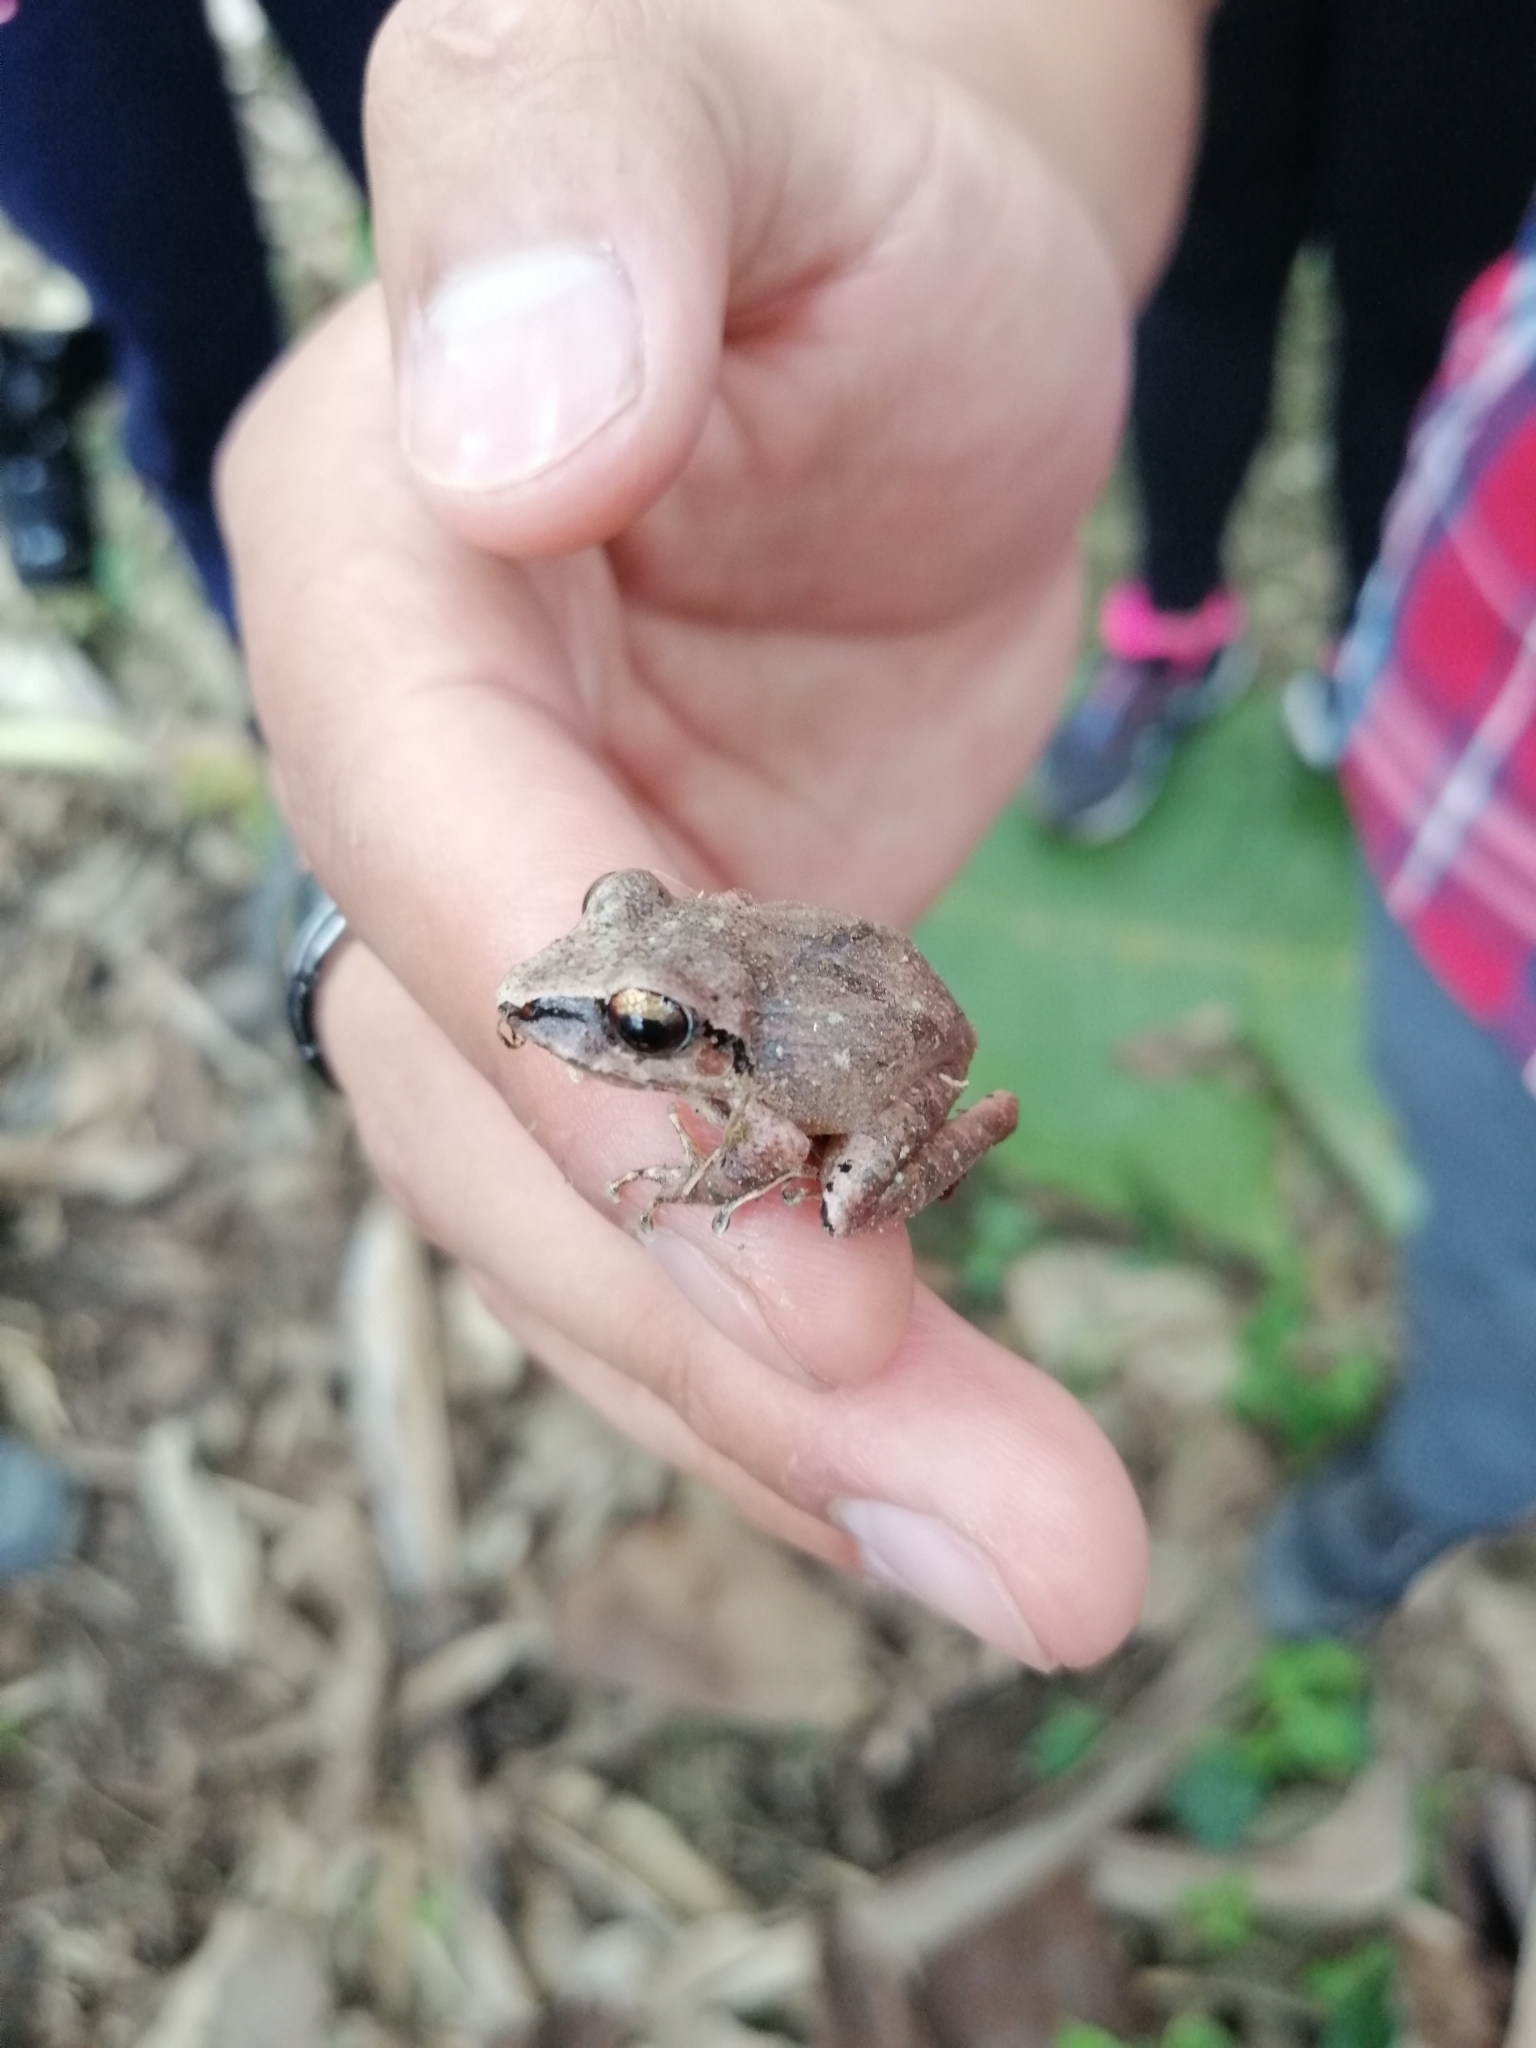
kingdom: Animalia
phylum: Chordata
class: Amphibia
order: Anura
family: Craugastoridae
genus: Pristimantis
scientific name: Pristimantis achatinus
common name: Cachabi robber frog
